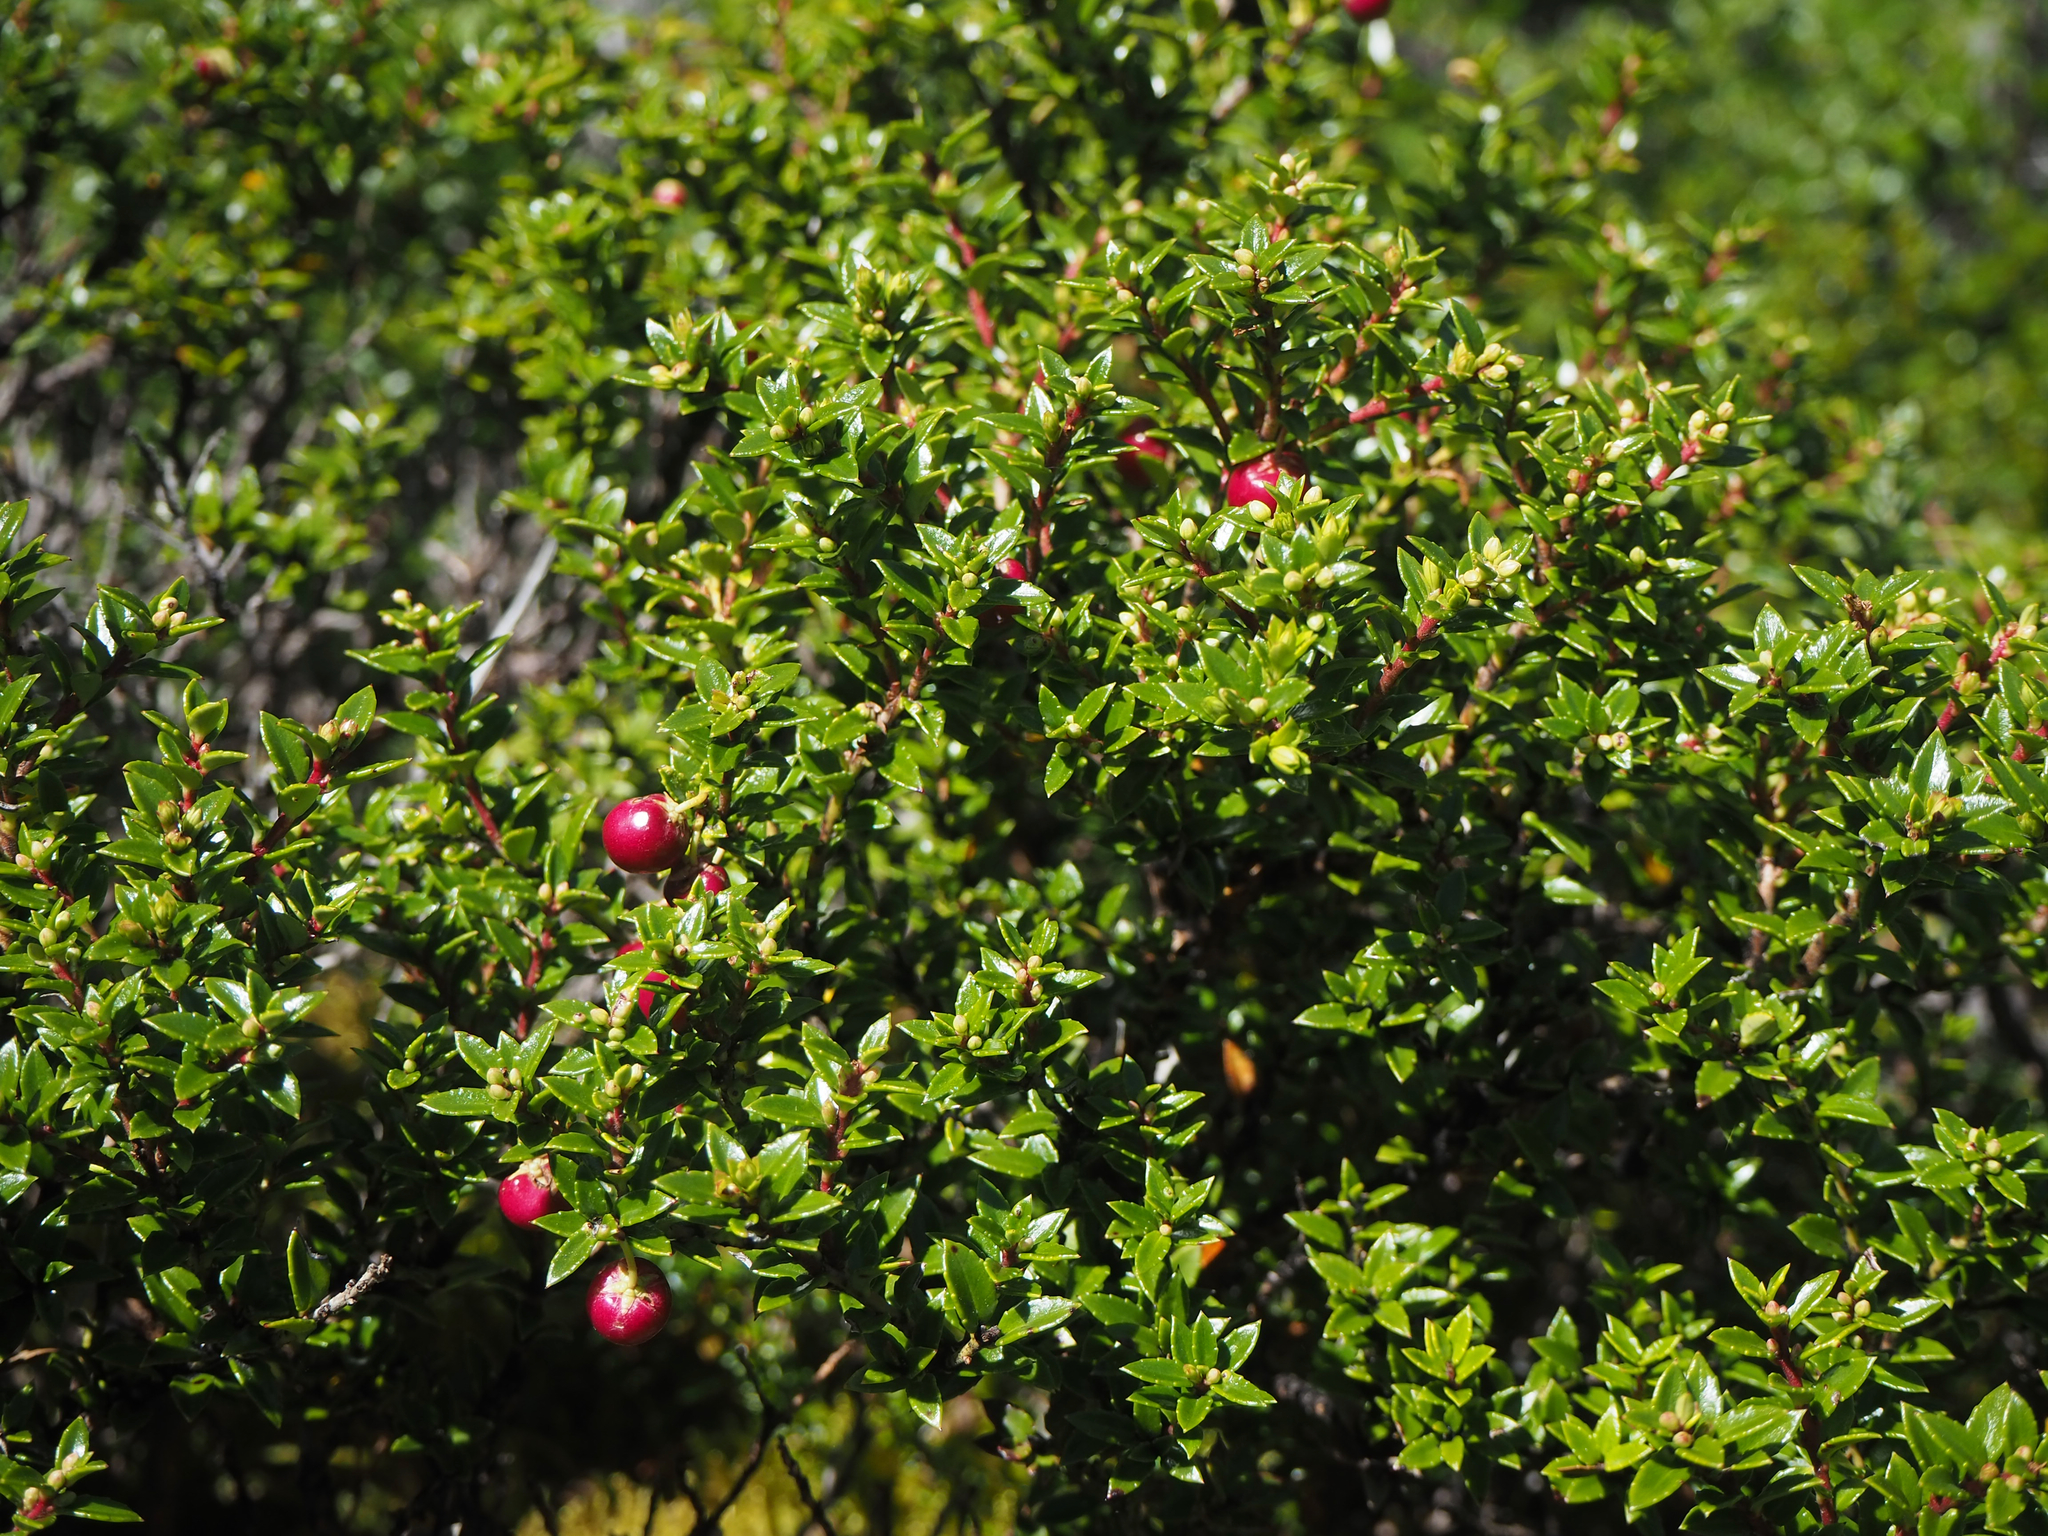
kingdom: Plantae
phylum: Tracheophyta
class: Magnoliopsida
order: Ericales
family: Ericaceae
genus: Gaultheria
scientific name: Gaultheria mucronata
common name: Prickly heath
